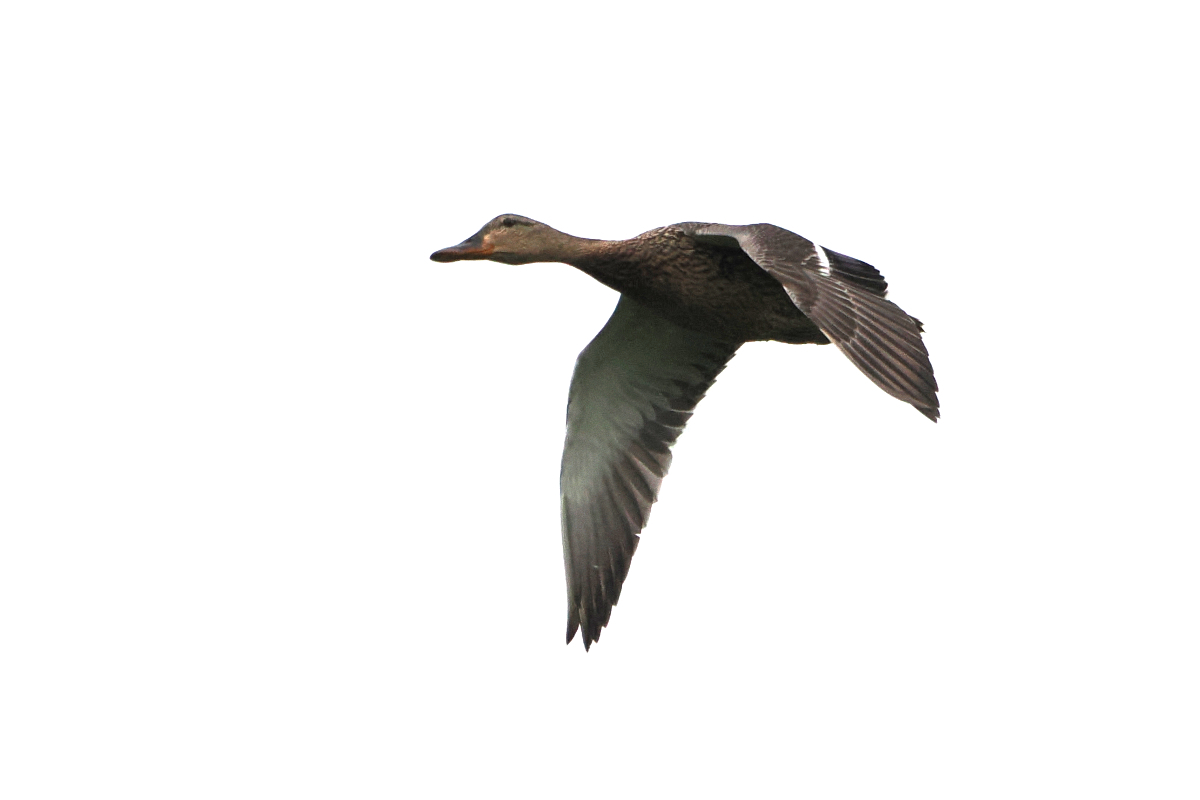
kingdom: Animalia
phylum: Chordata
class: Aves
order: Anseriformes
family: Anatidae
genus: Anas
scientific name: Anas platyrhynchos
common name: Mallard
